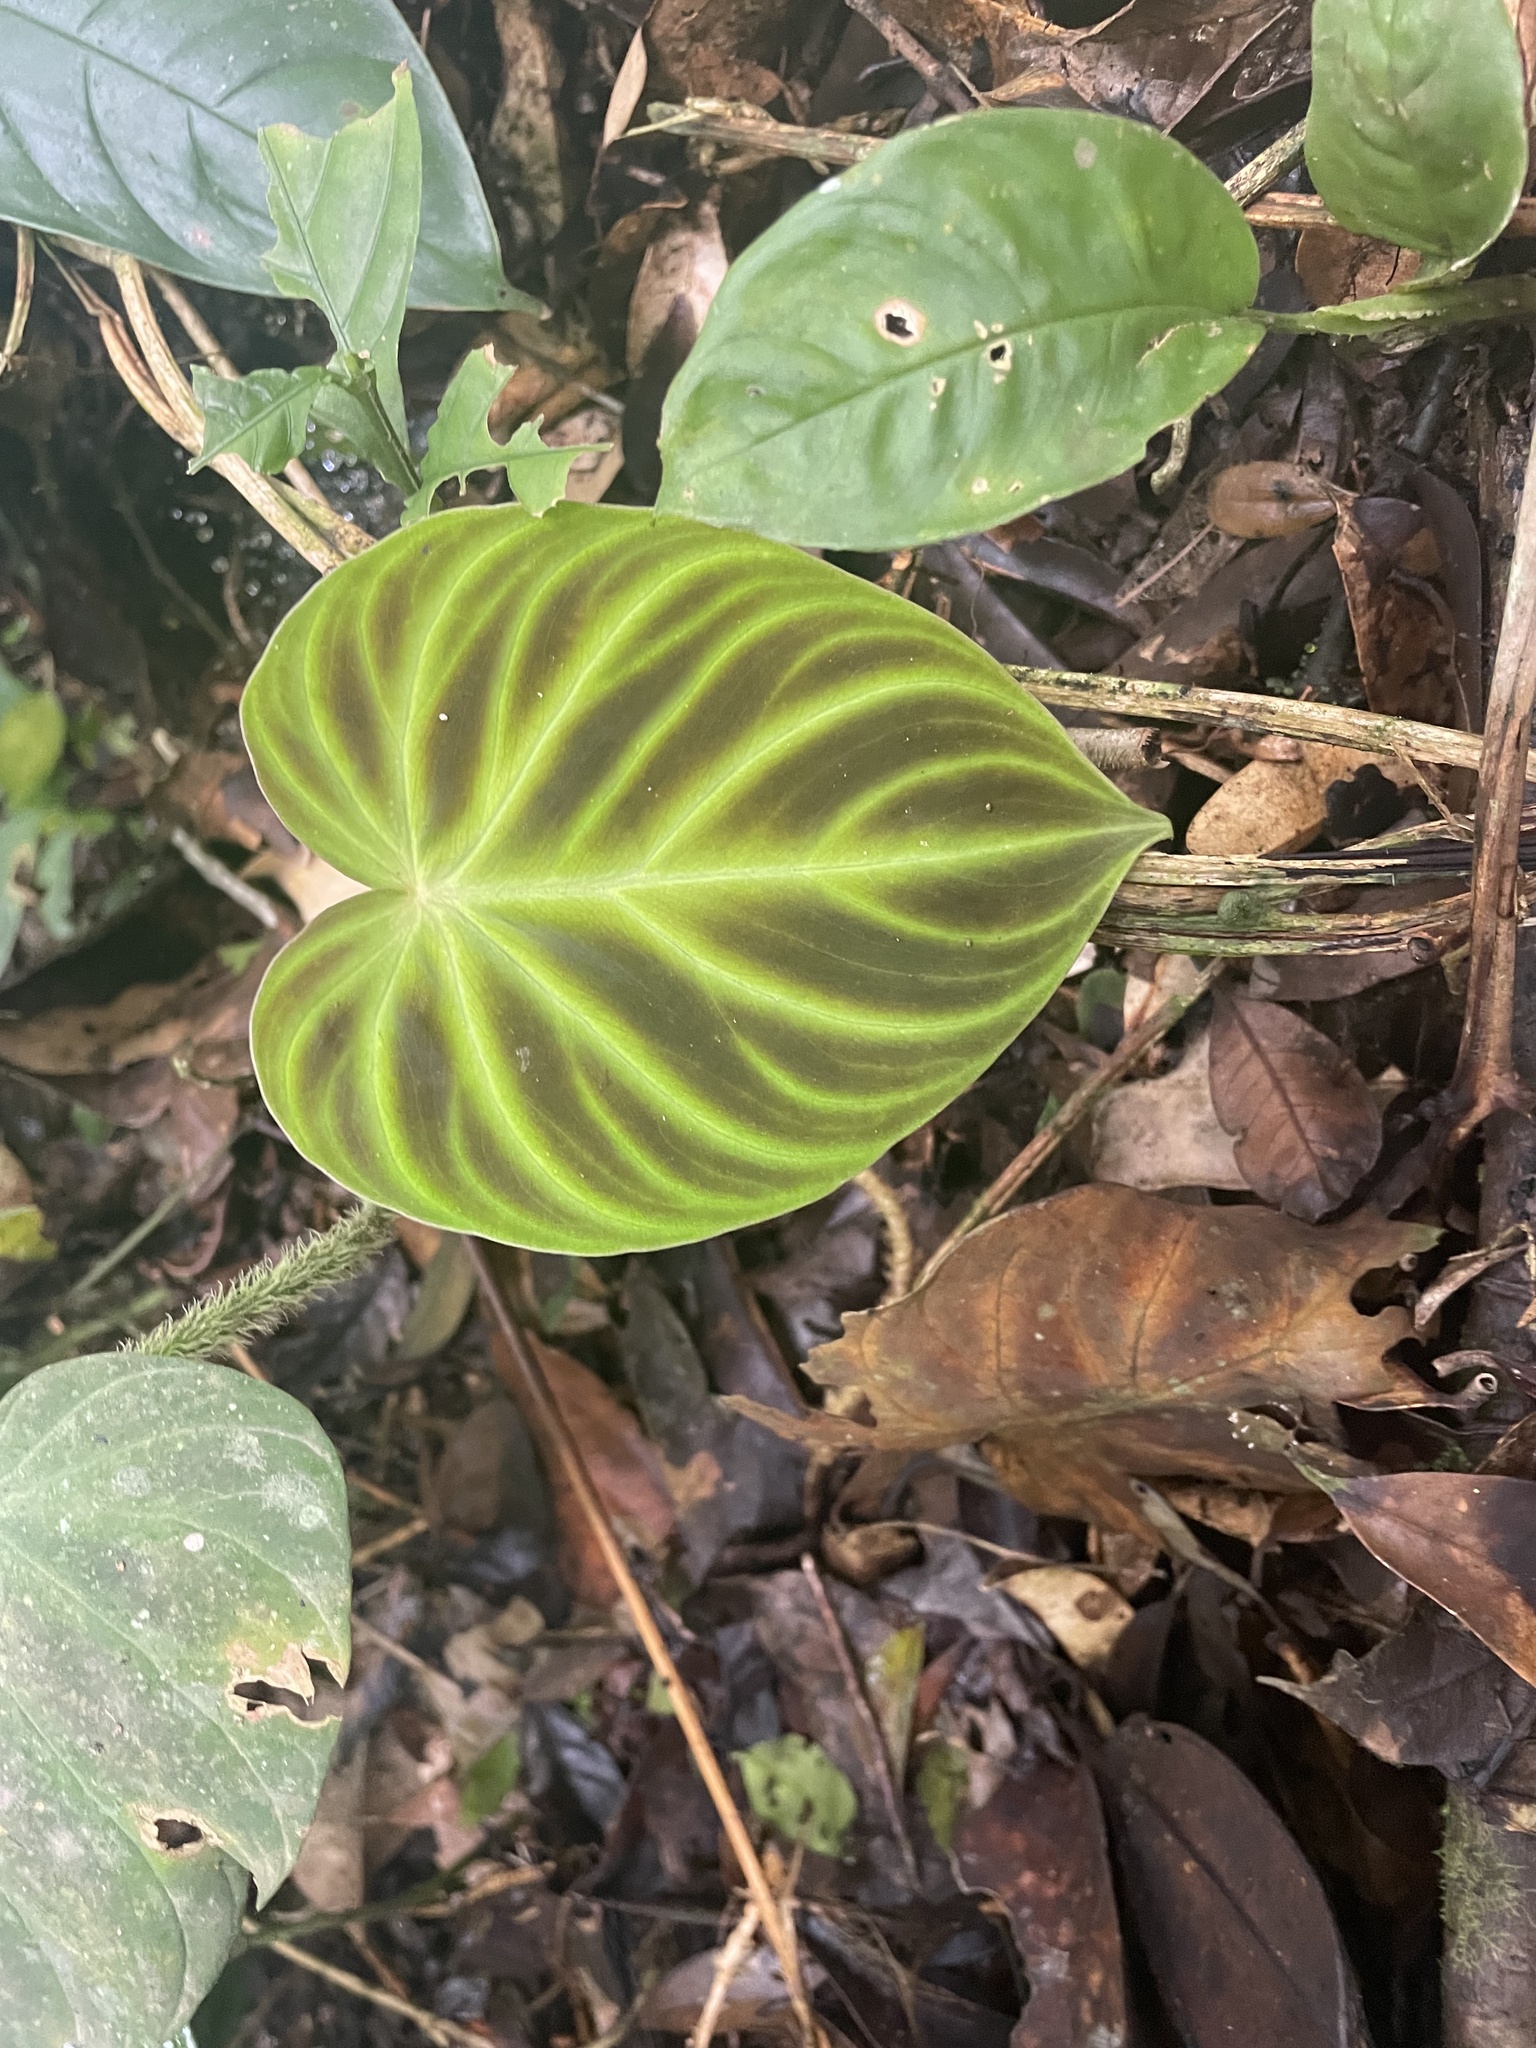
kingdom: Plantae
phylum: Tracheophyta
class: Liliopsida
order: Alismatales
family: Araceae
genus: Philodendron
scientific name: Philodendron verrucosum
